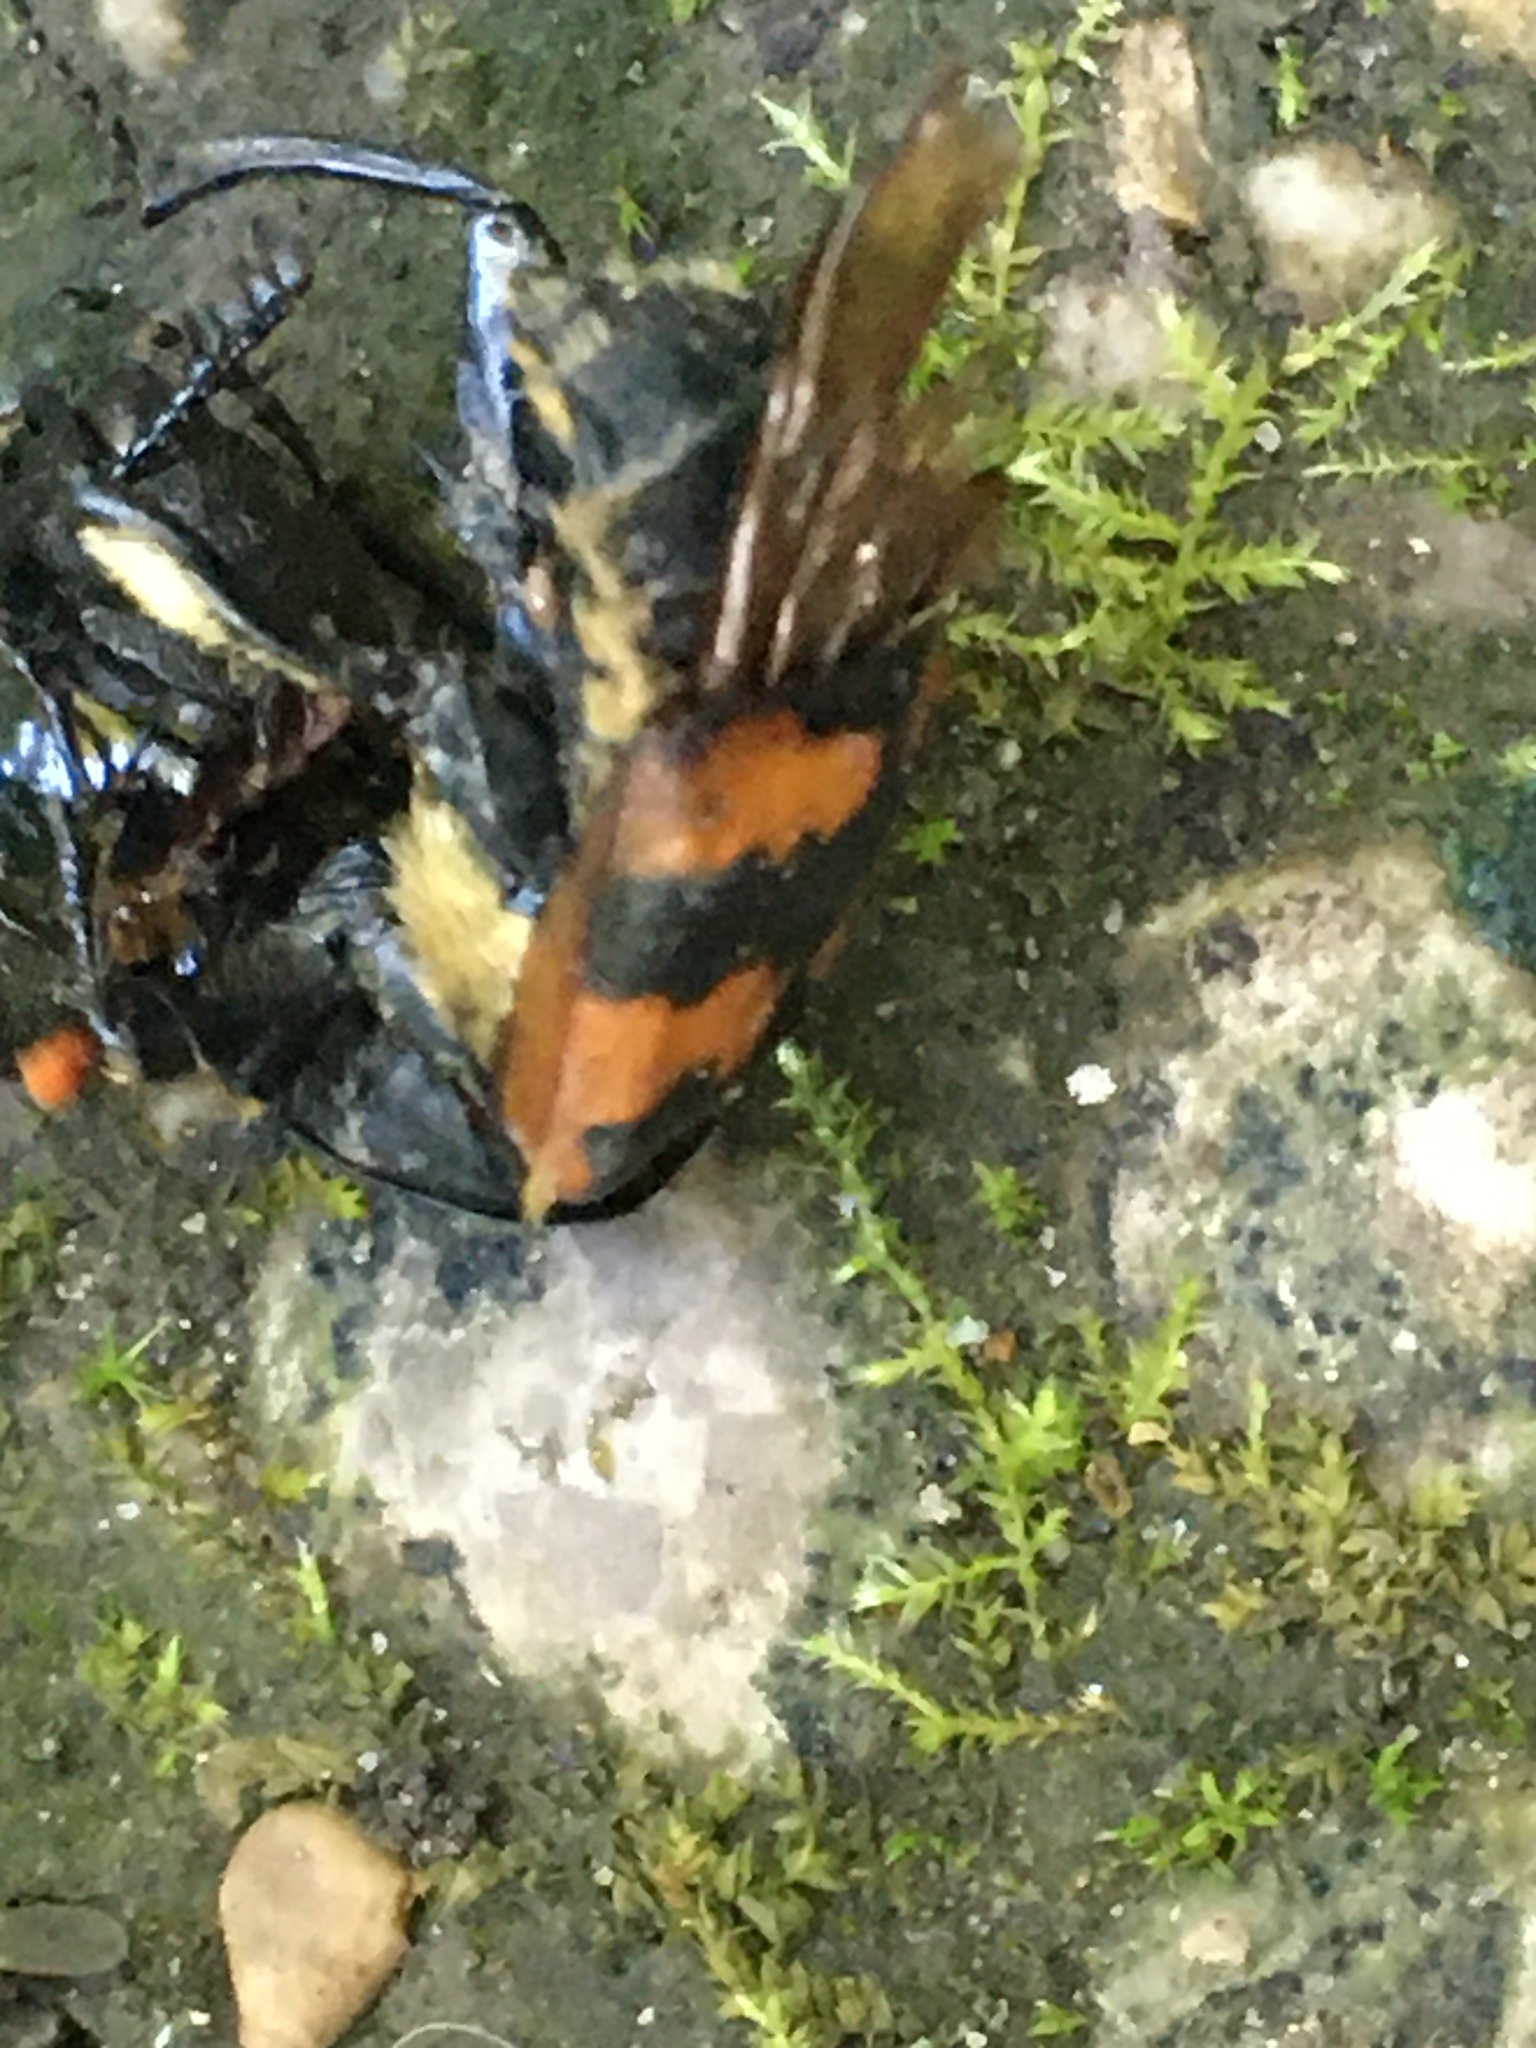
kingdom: Animalia
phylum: Arthropoda
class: Insecta
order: Coleoptera
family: Staphylinidae
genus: Nicrophorus
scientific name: Nicrophorus vespillo
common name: Common burying beetle
